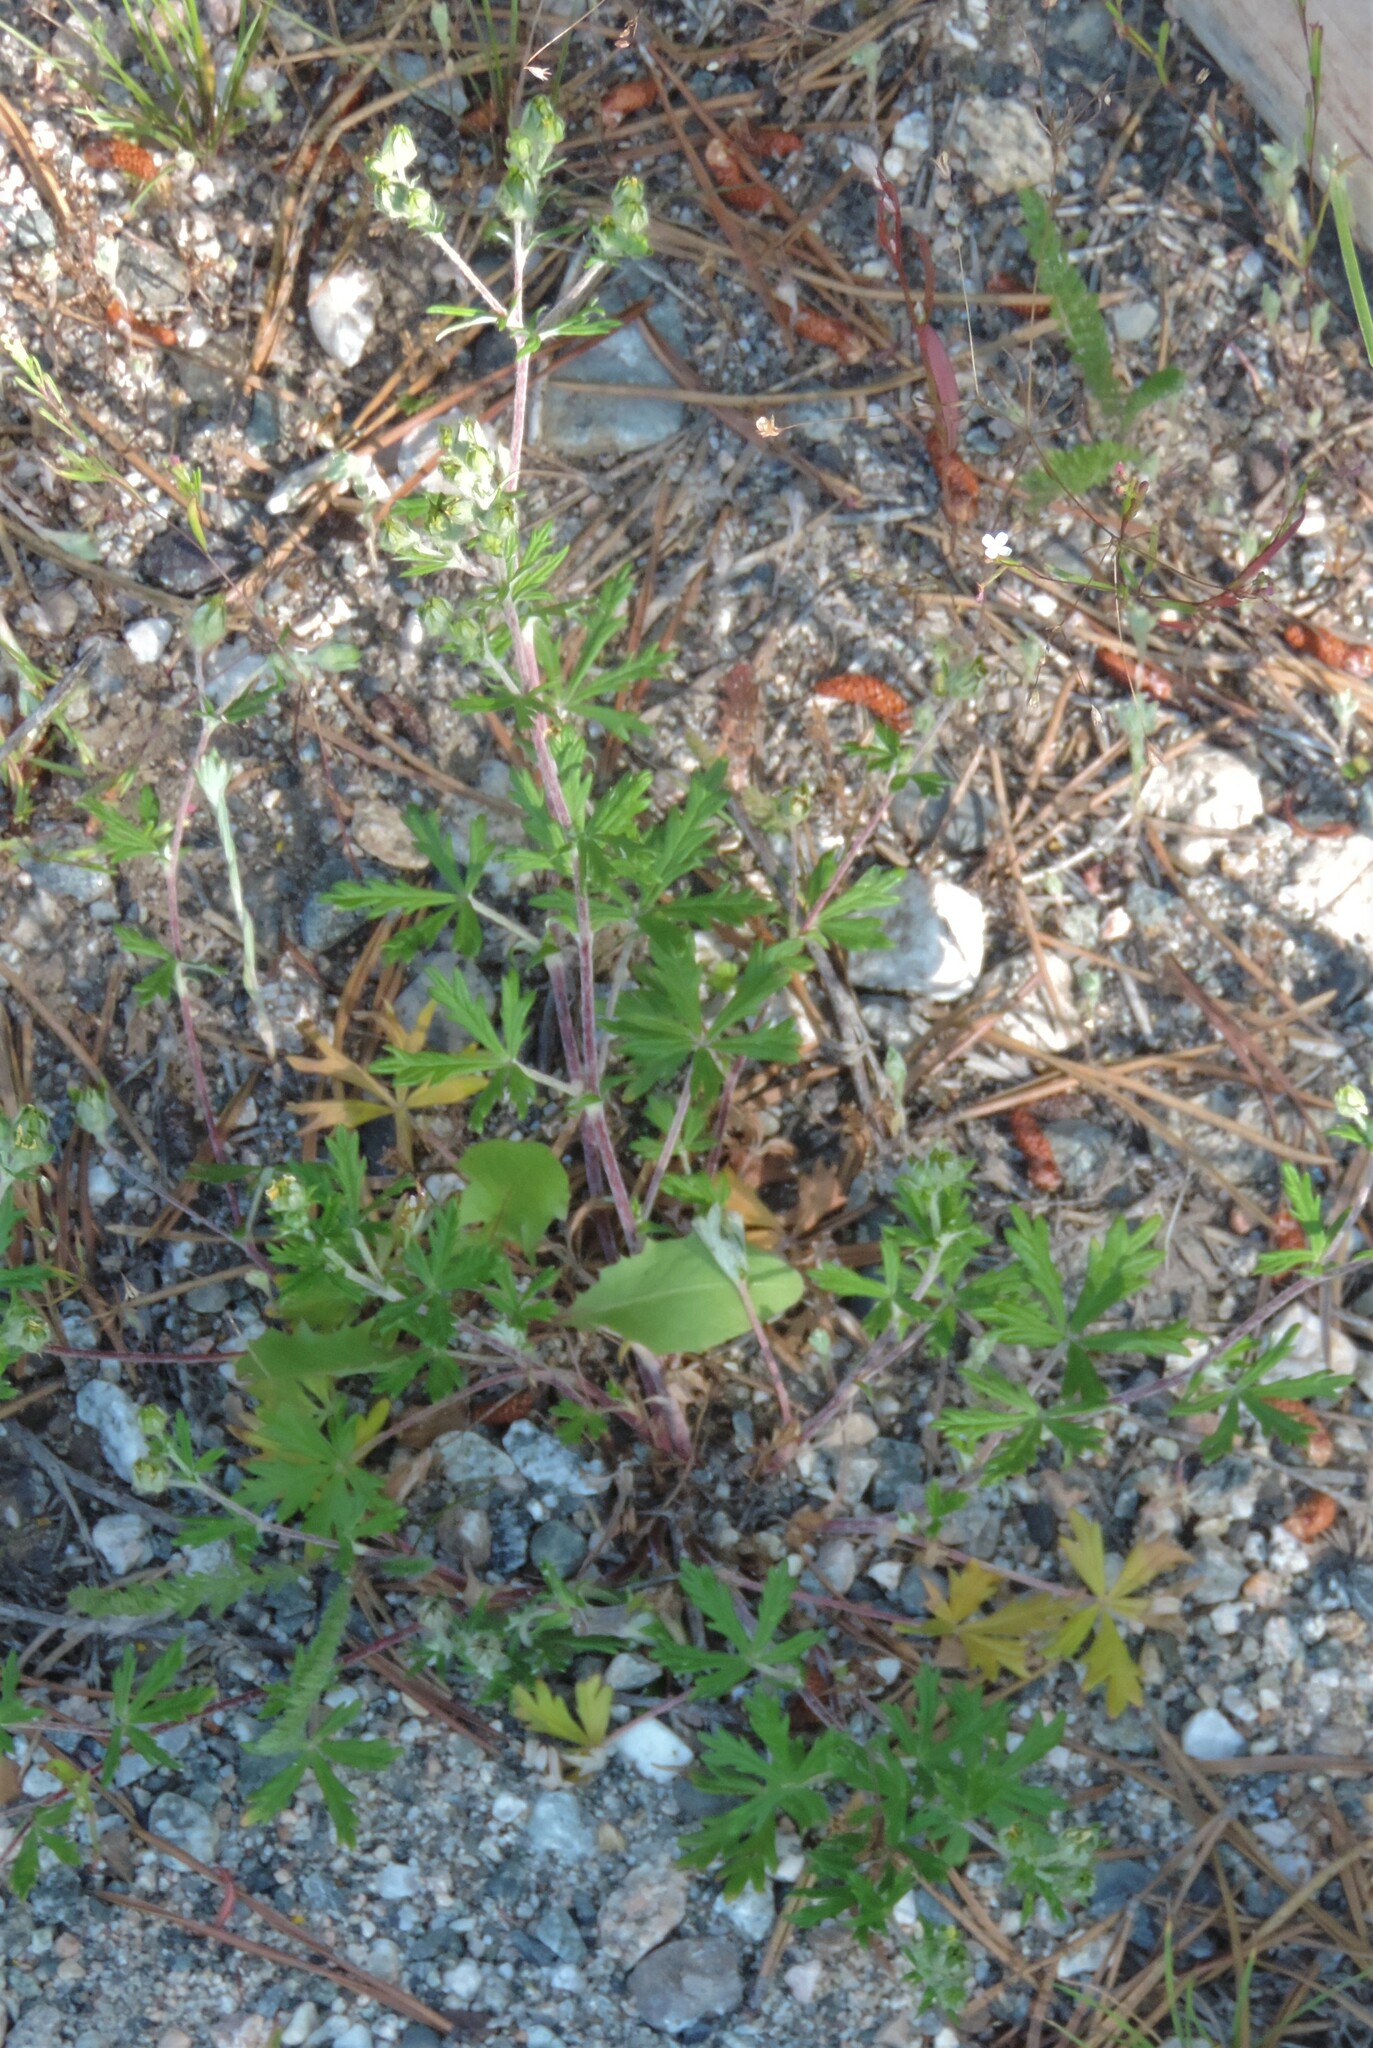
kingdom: Plantae
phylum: Tracheophyta
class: Magnoliopsida
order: Rosales
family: Rosaceae
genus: Potentilla
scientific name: Potentilla argentea
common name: Hoary cinquefoil
